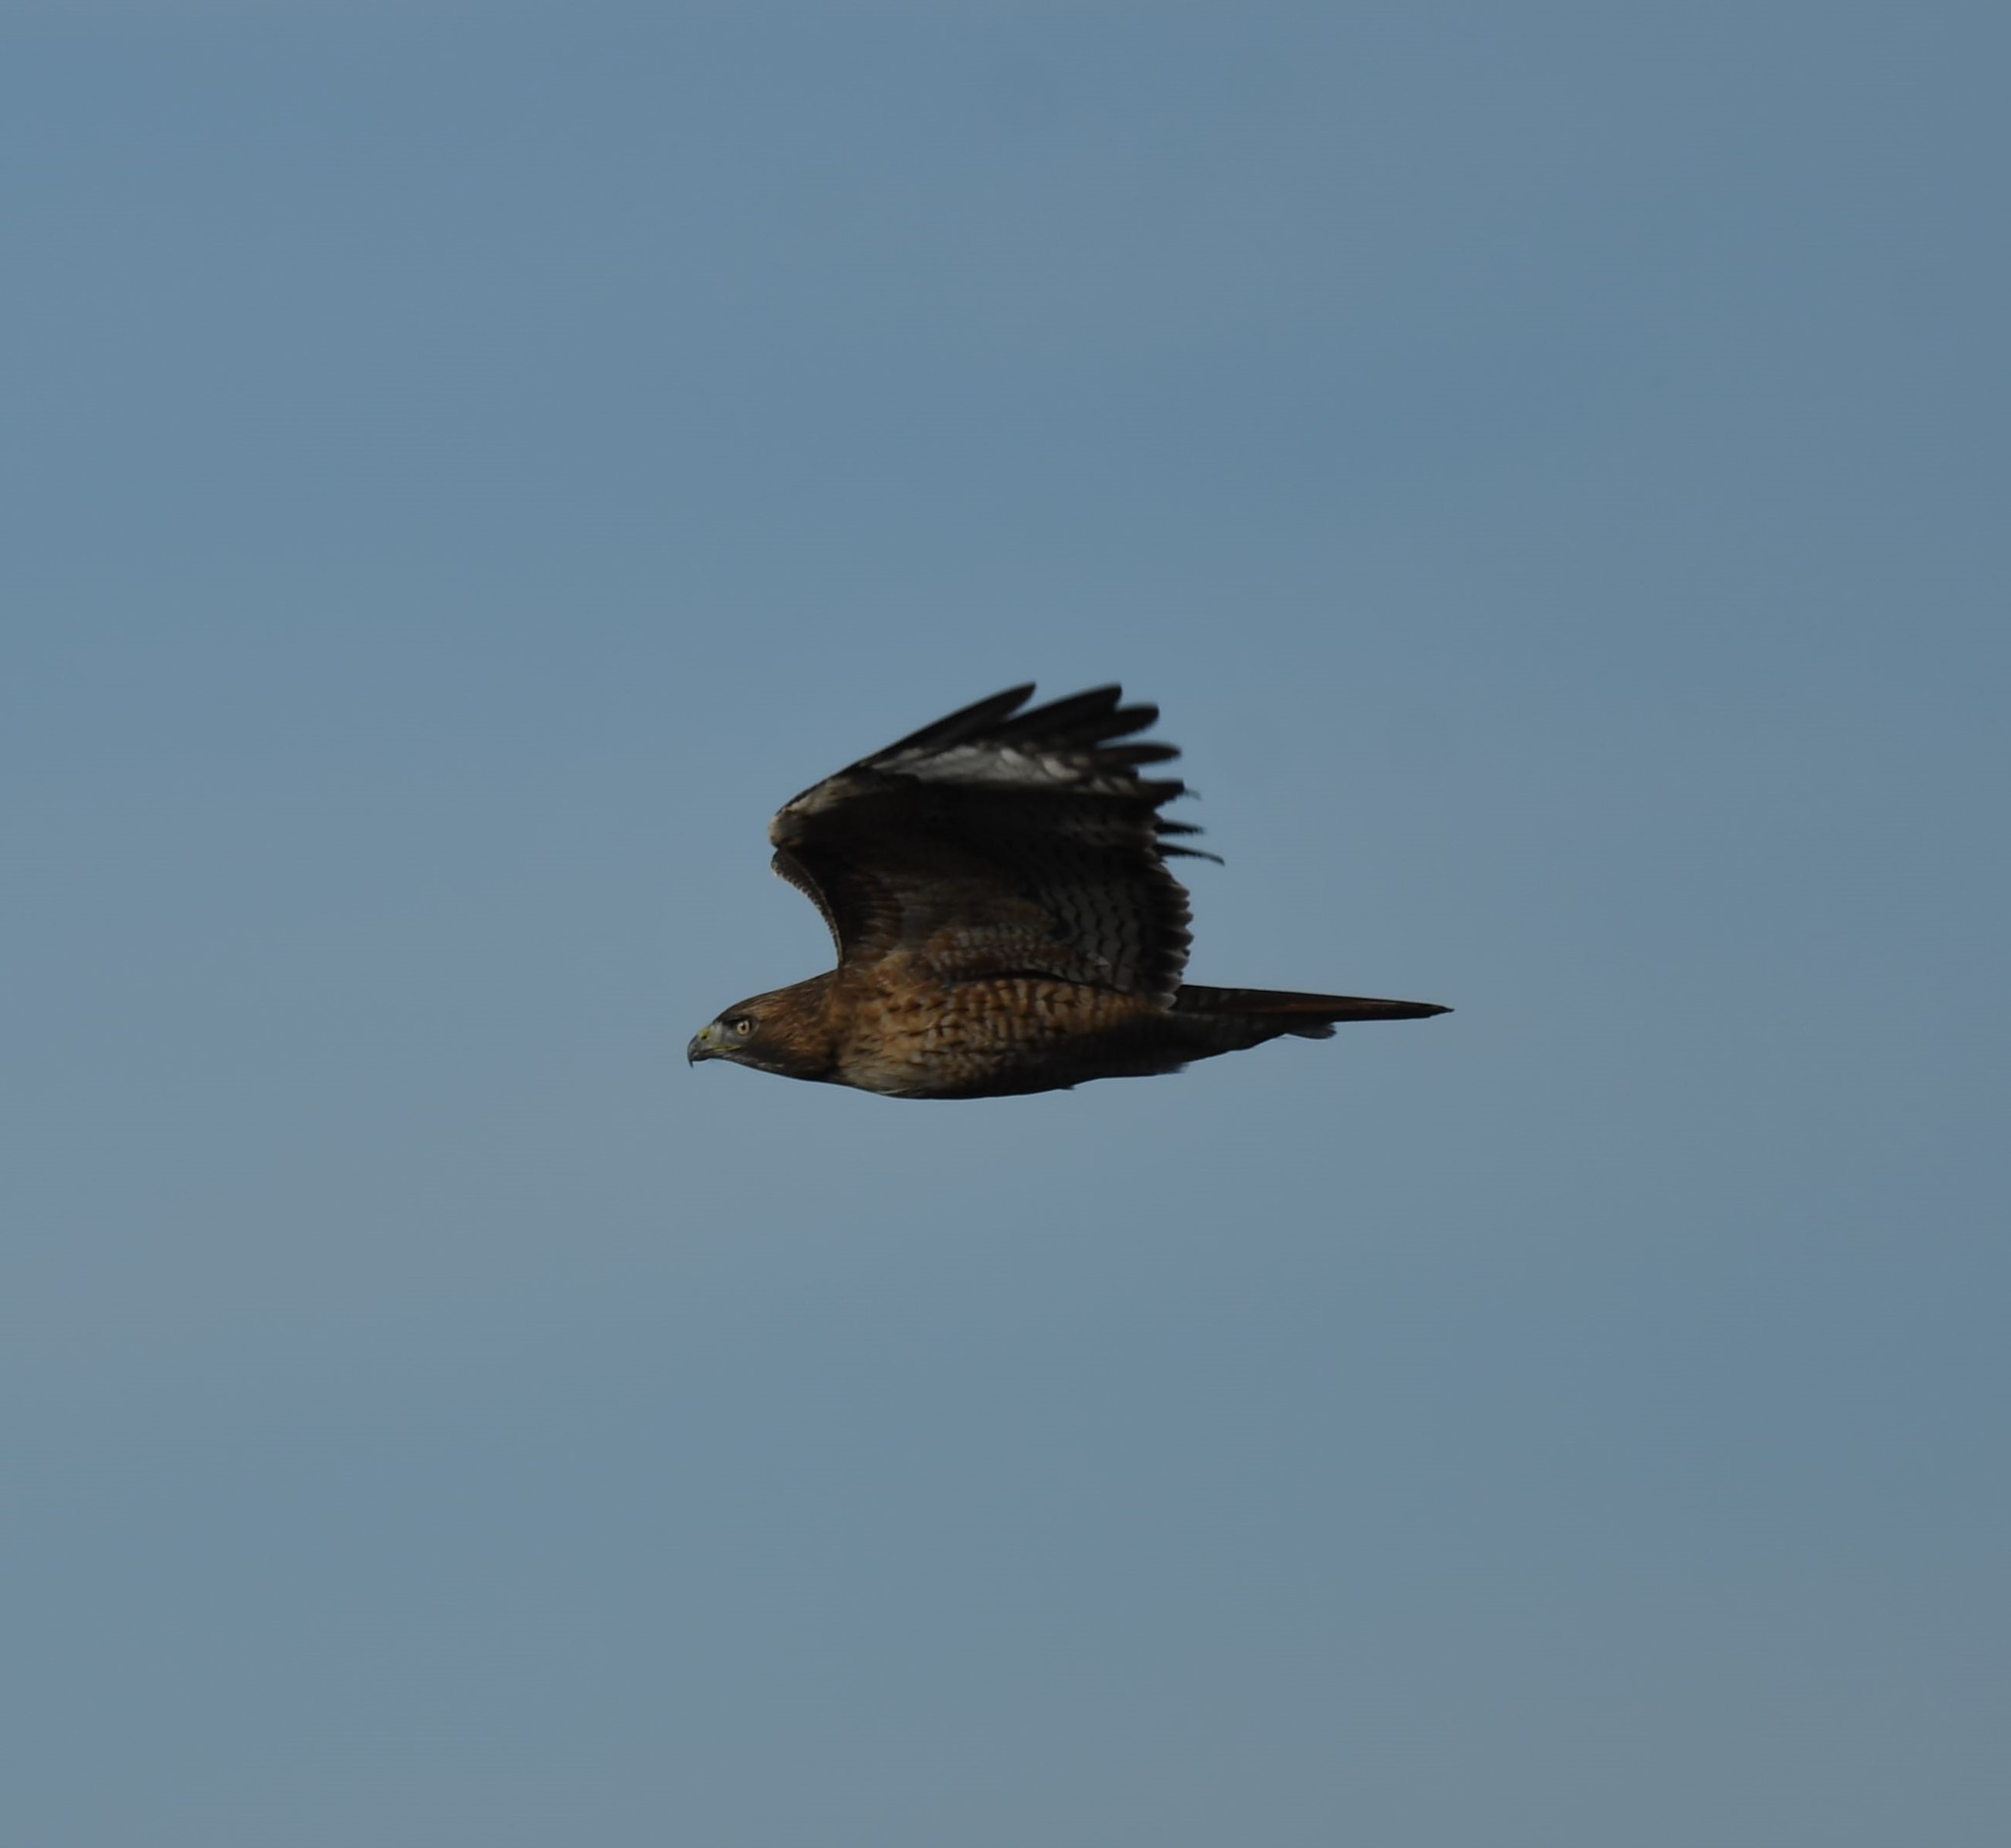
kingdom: Animalia
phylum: Chordata
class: Aves
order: Accipitriformes
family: Accipitridae
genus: Buteo
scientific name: Buteo jamaicensis
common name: Red-tailed hawk
